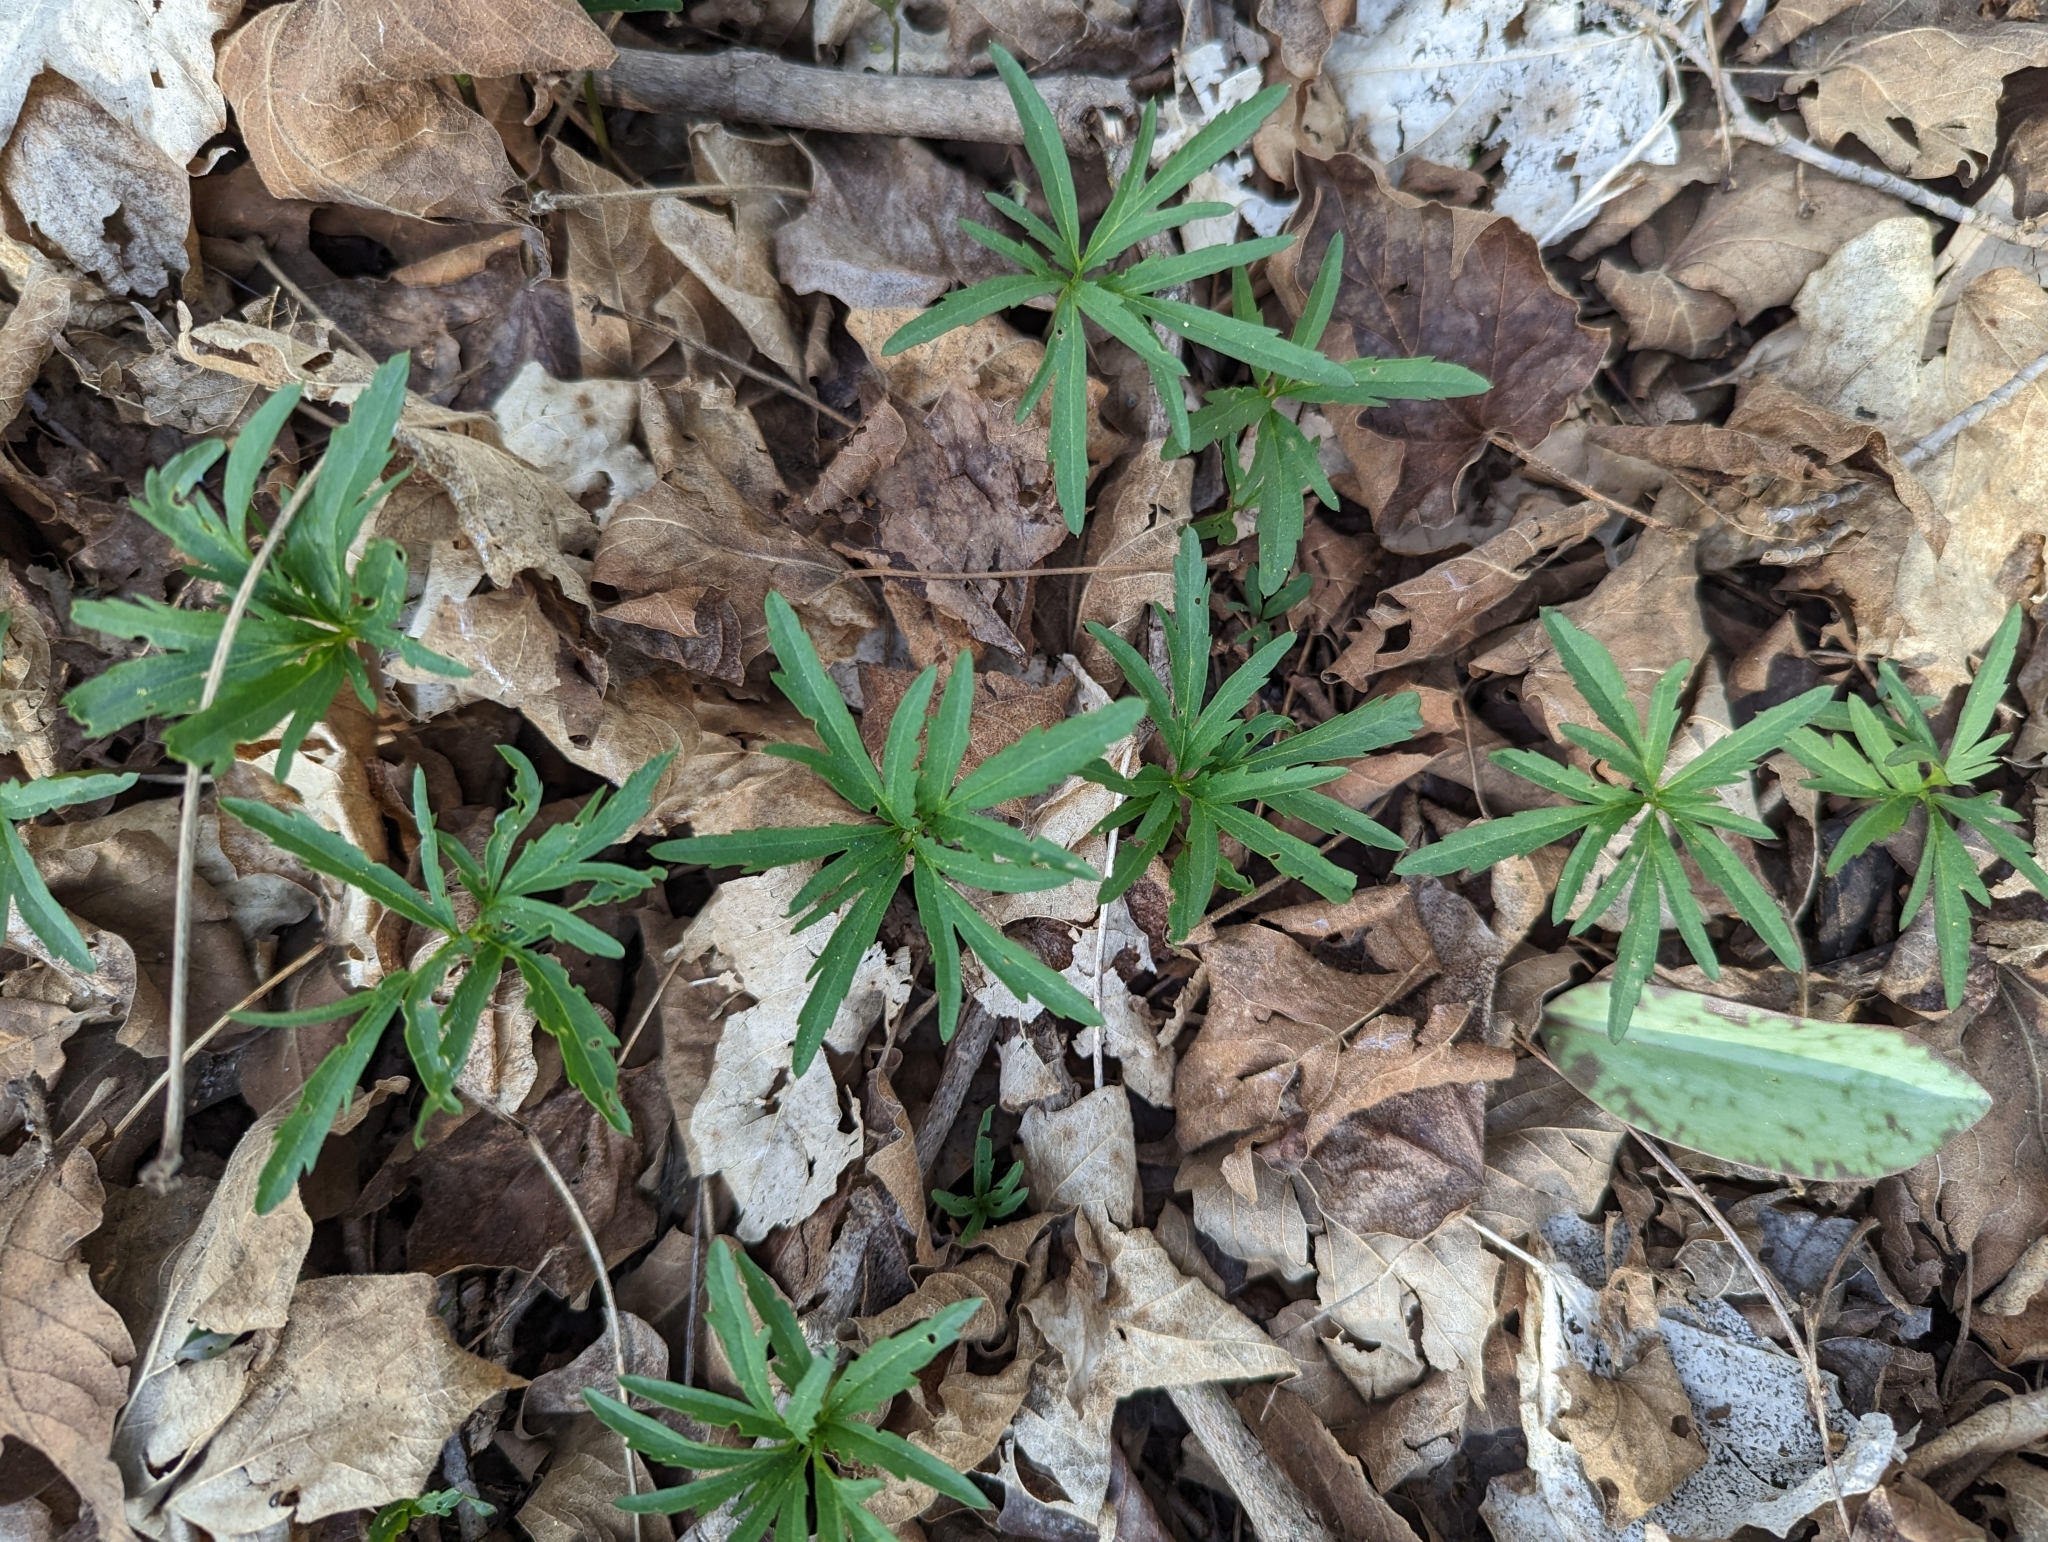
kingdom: Plantae
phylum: Tracheophyta
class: Magnoliopsida
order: Brassicales
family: Brassicaceae
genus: Cardamine
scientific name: Cardamine concatenata
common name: Cut-leaf toothcup
